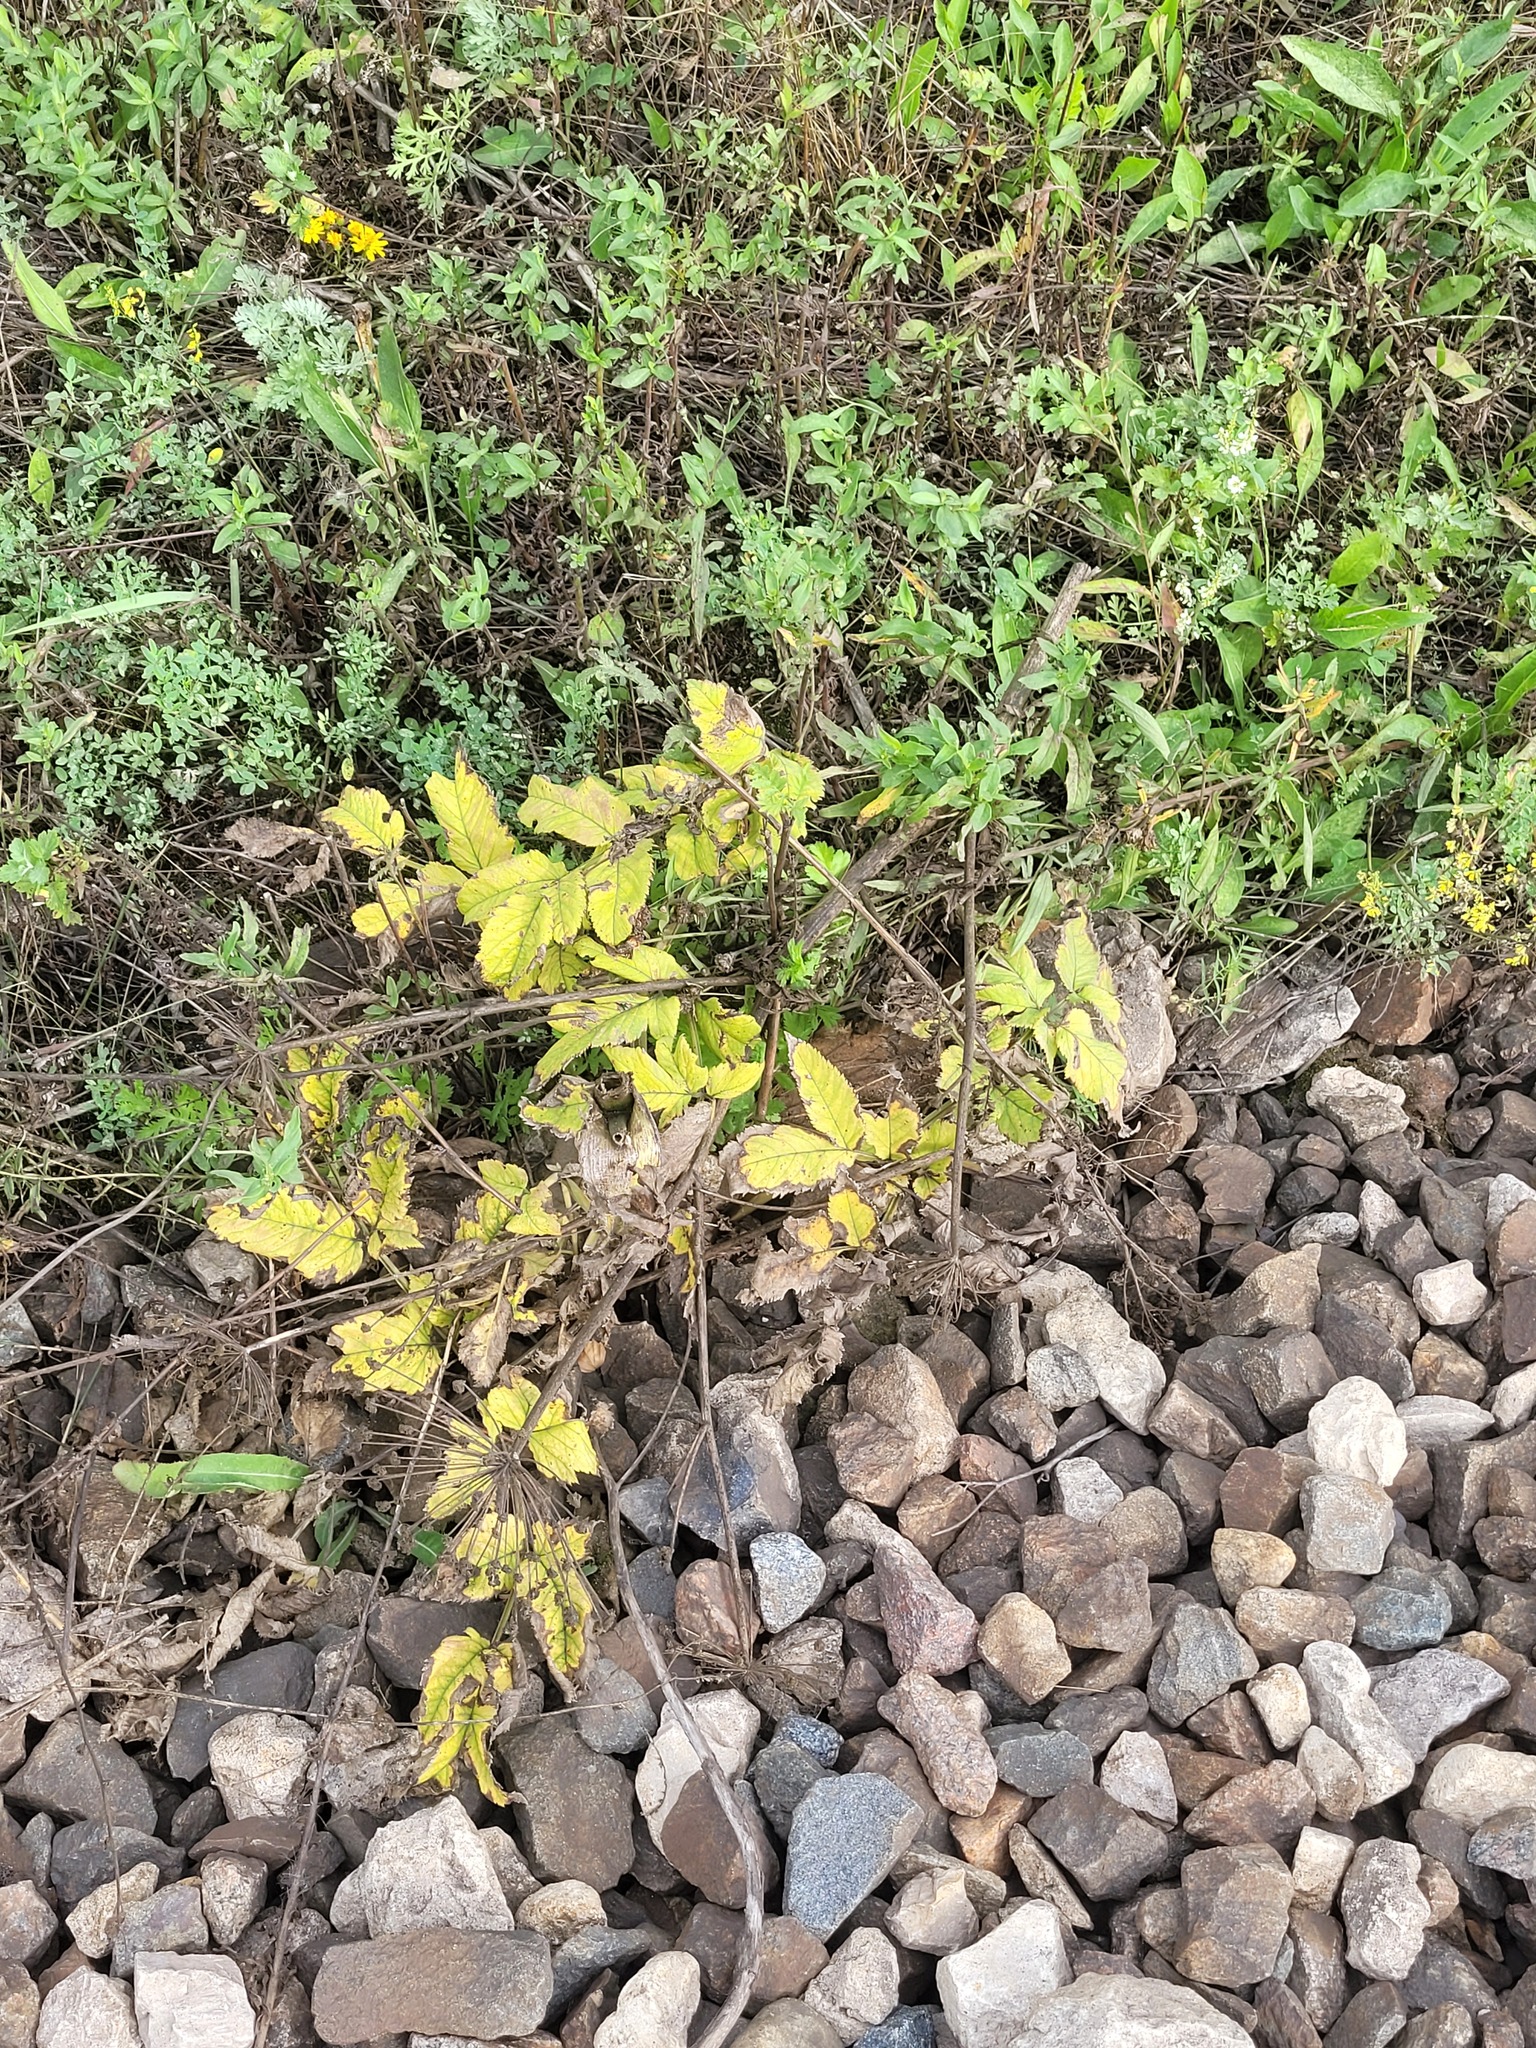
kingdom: Plantae
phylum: Tracheophyta
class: Magnoliopsida
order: Apiales
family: Apiaceae
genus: Angelica
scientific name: Angelica sylvestris
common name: Wild angelica
